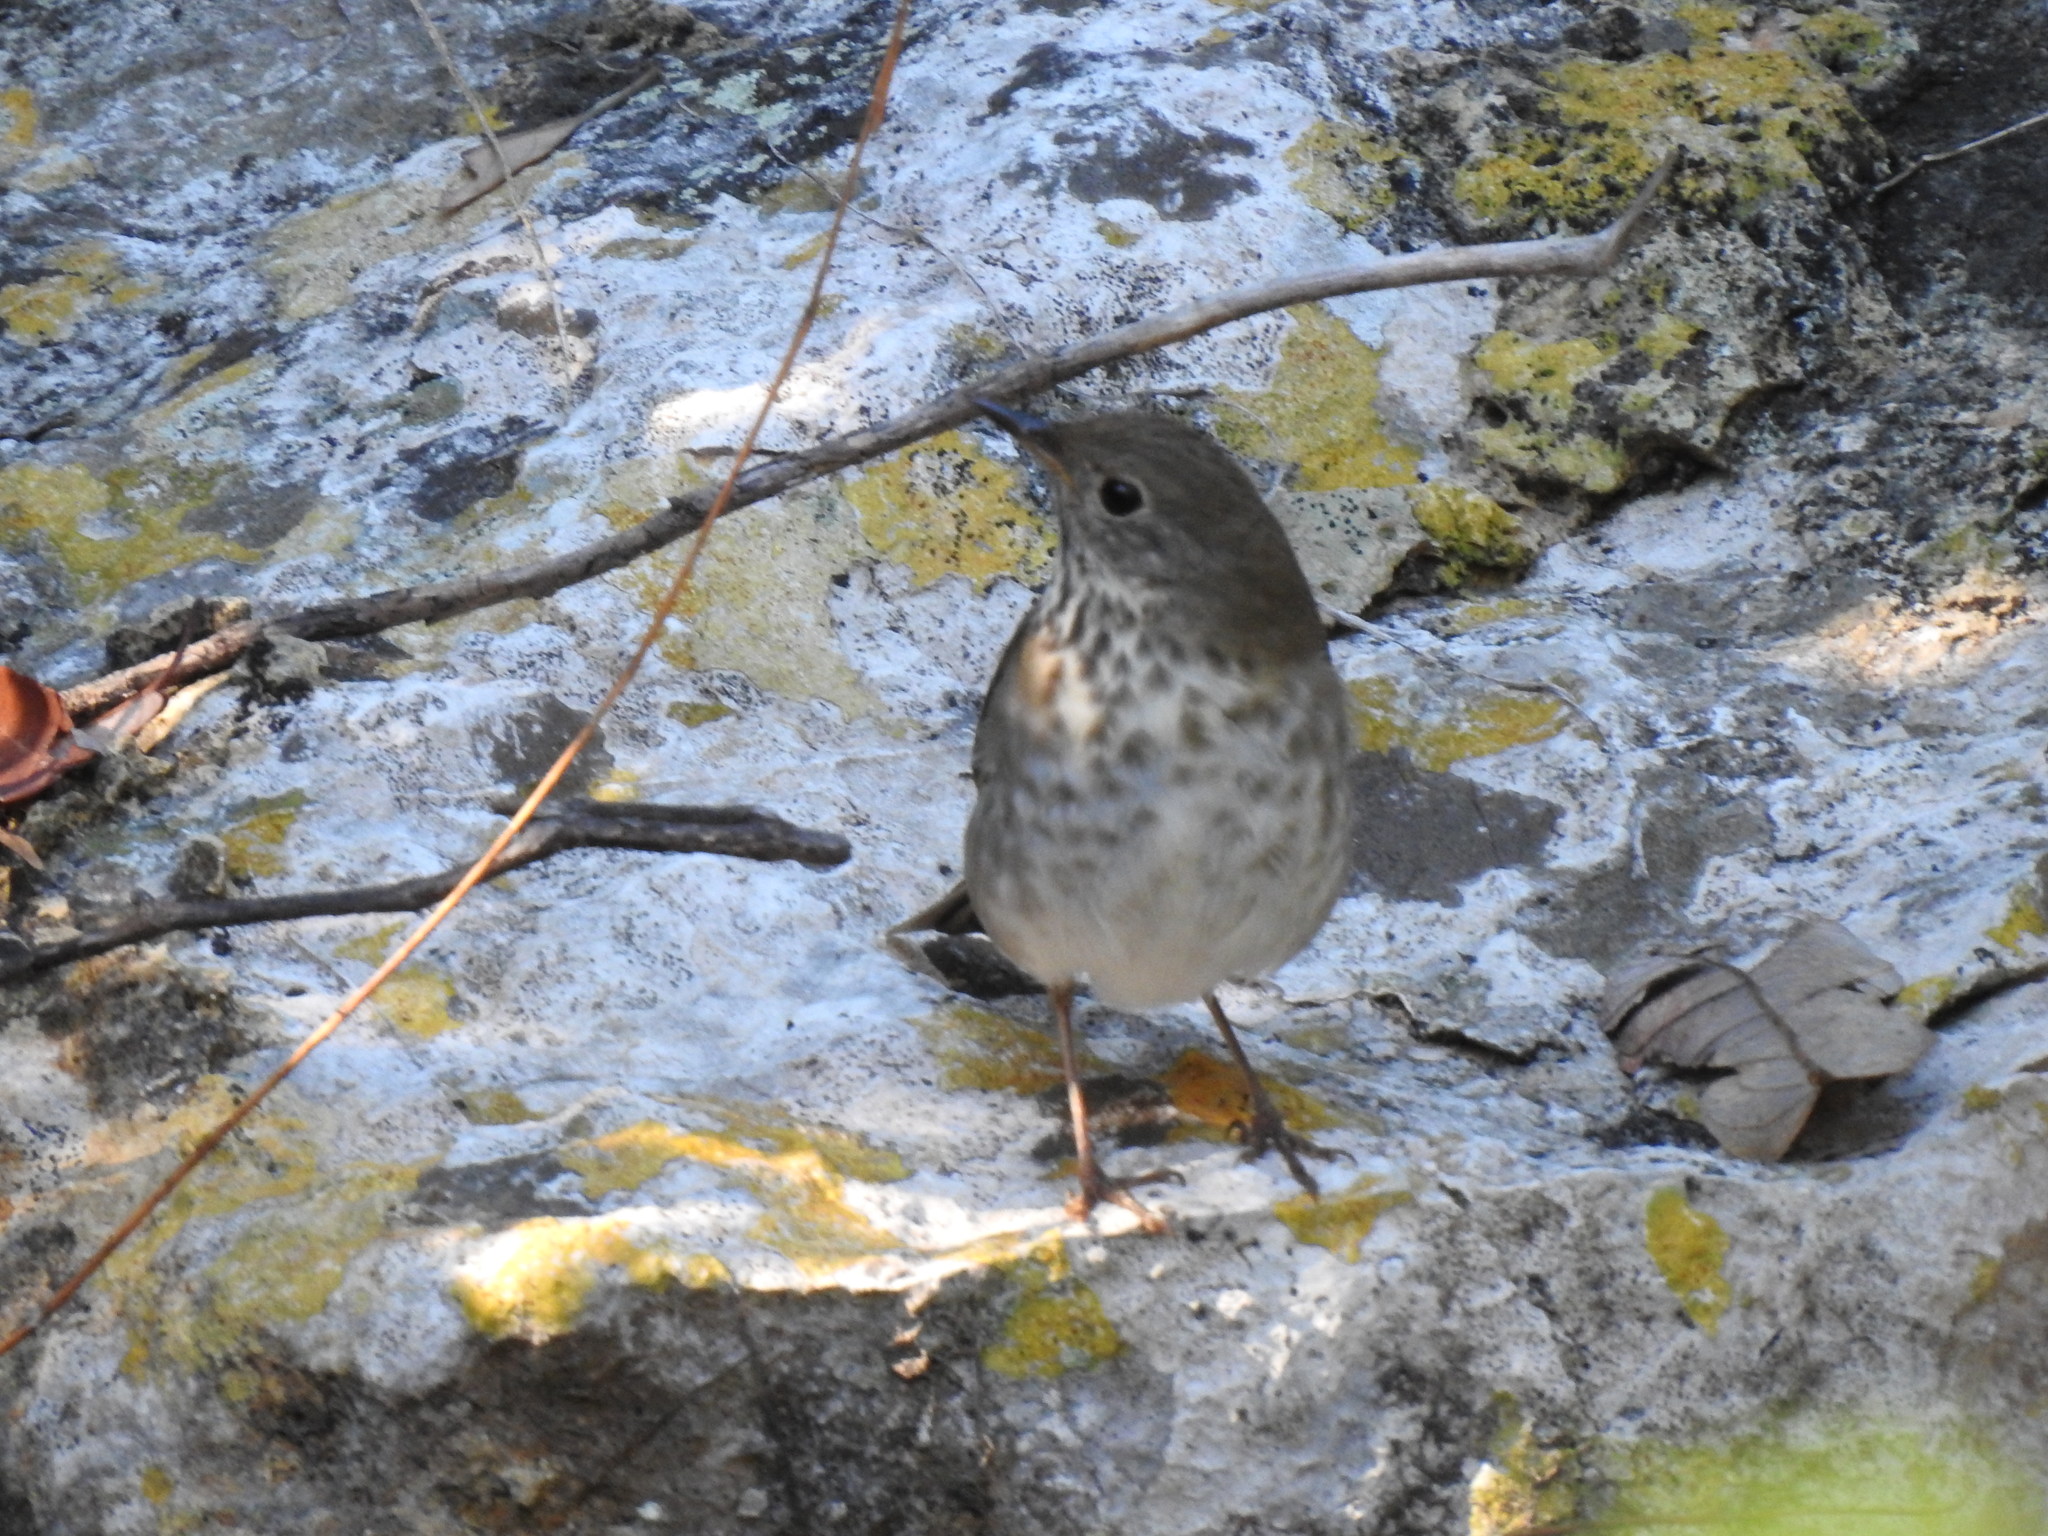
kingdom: Animalia
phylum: Chordata
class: Aves
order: Passeriformes
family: Turdidae
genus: Catharus
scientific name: Catharus guttatus
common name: Hermit thrush
